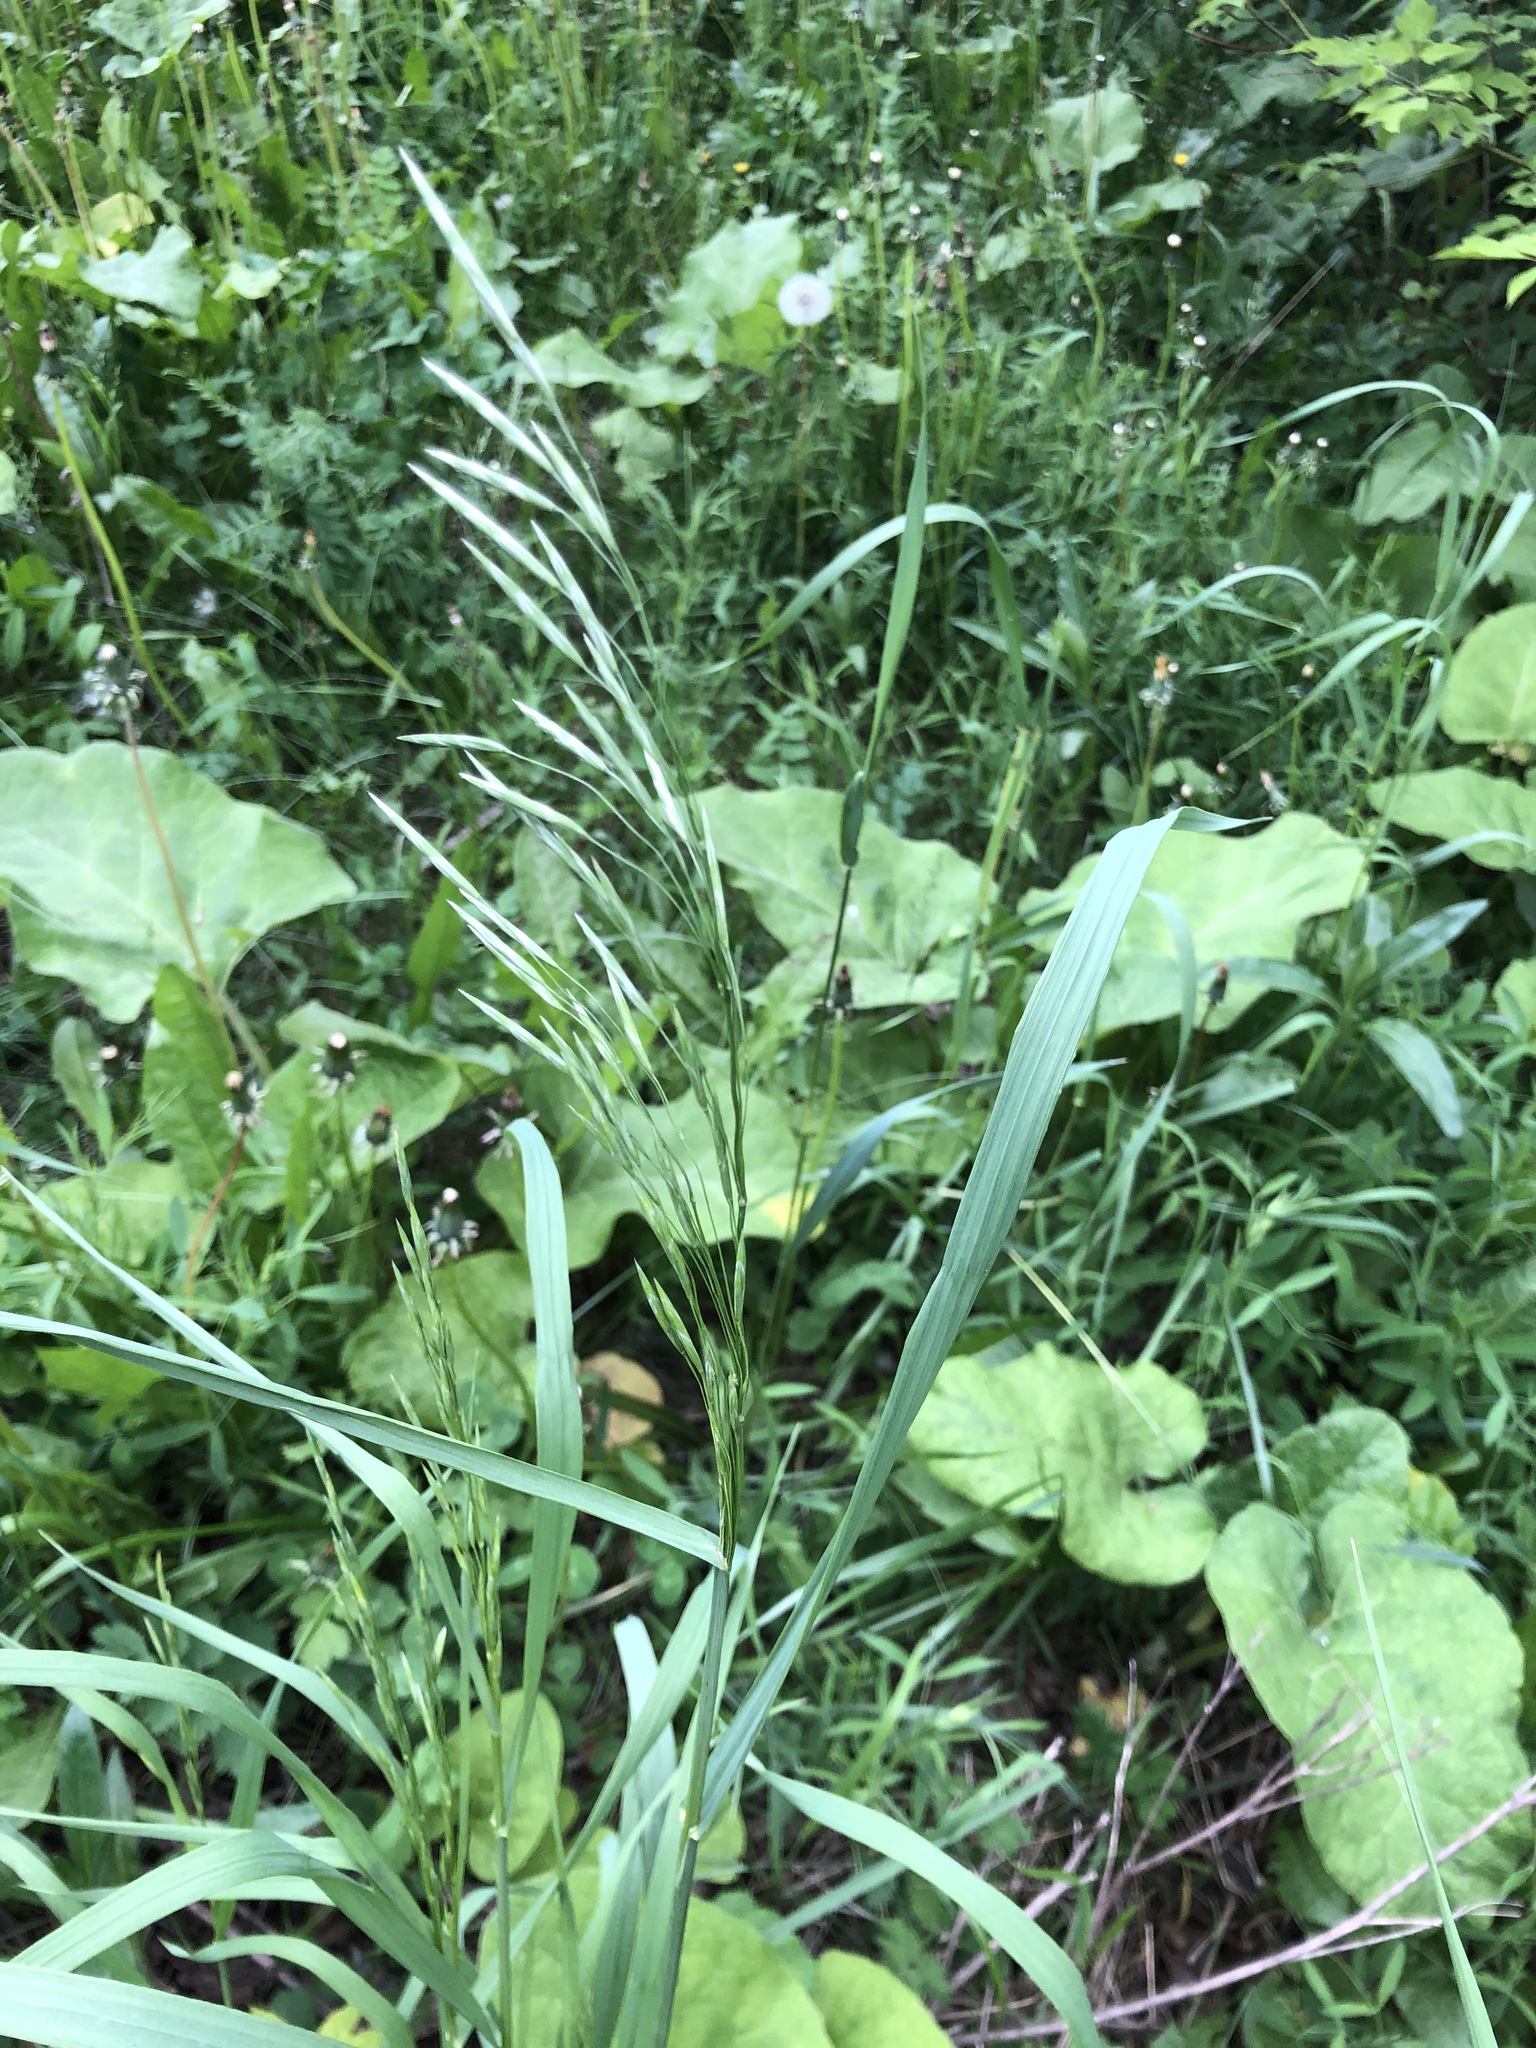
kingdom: Plantae
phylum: Tracheophyta
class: Liliopsida
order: Poales
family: Poaceae
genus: Bromus
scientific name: Bromus inermis
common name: Smooth brome
